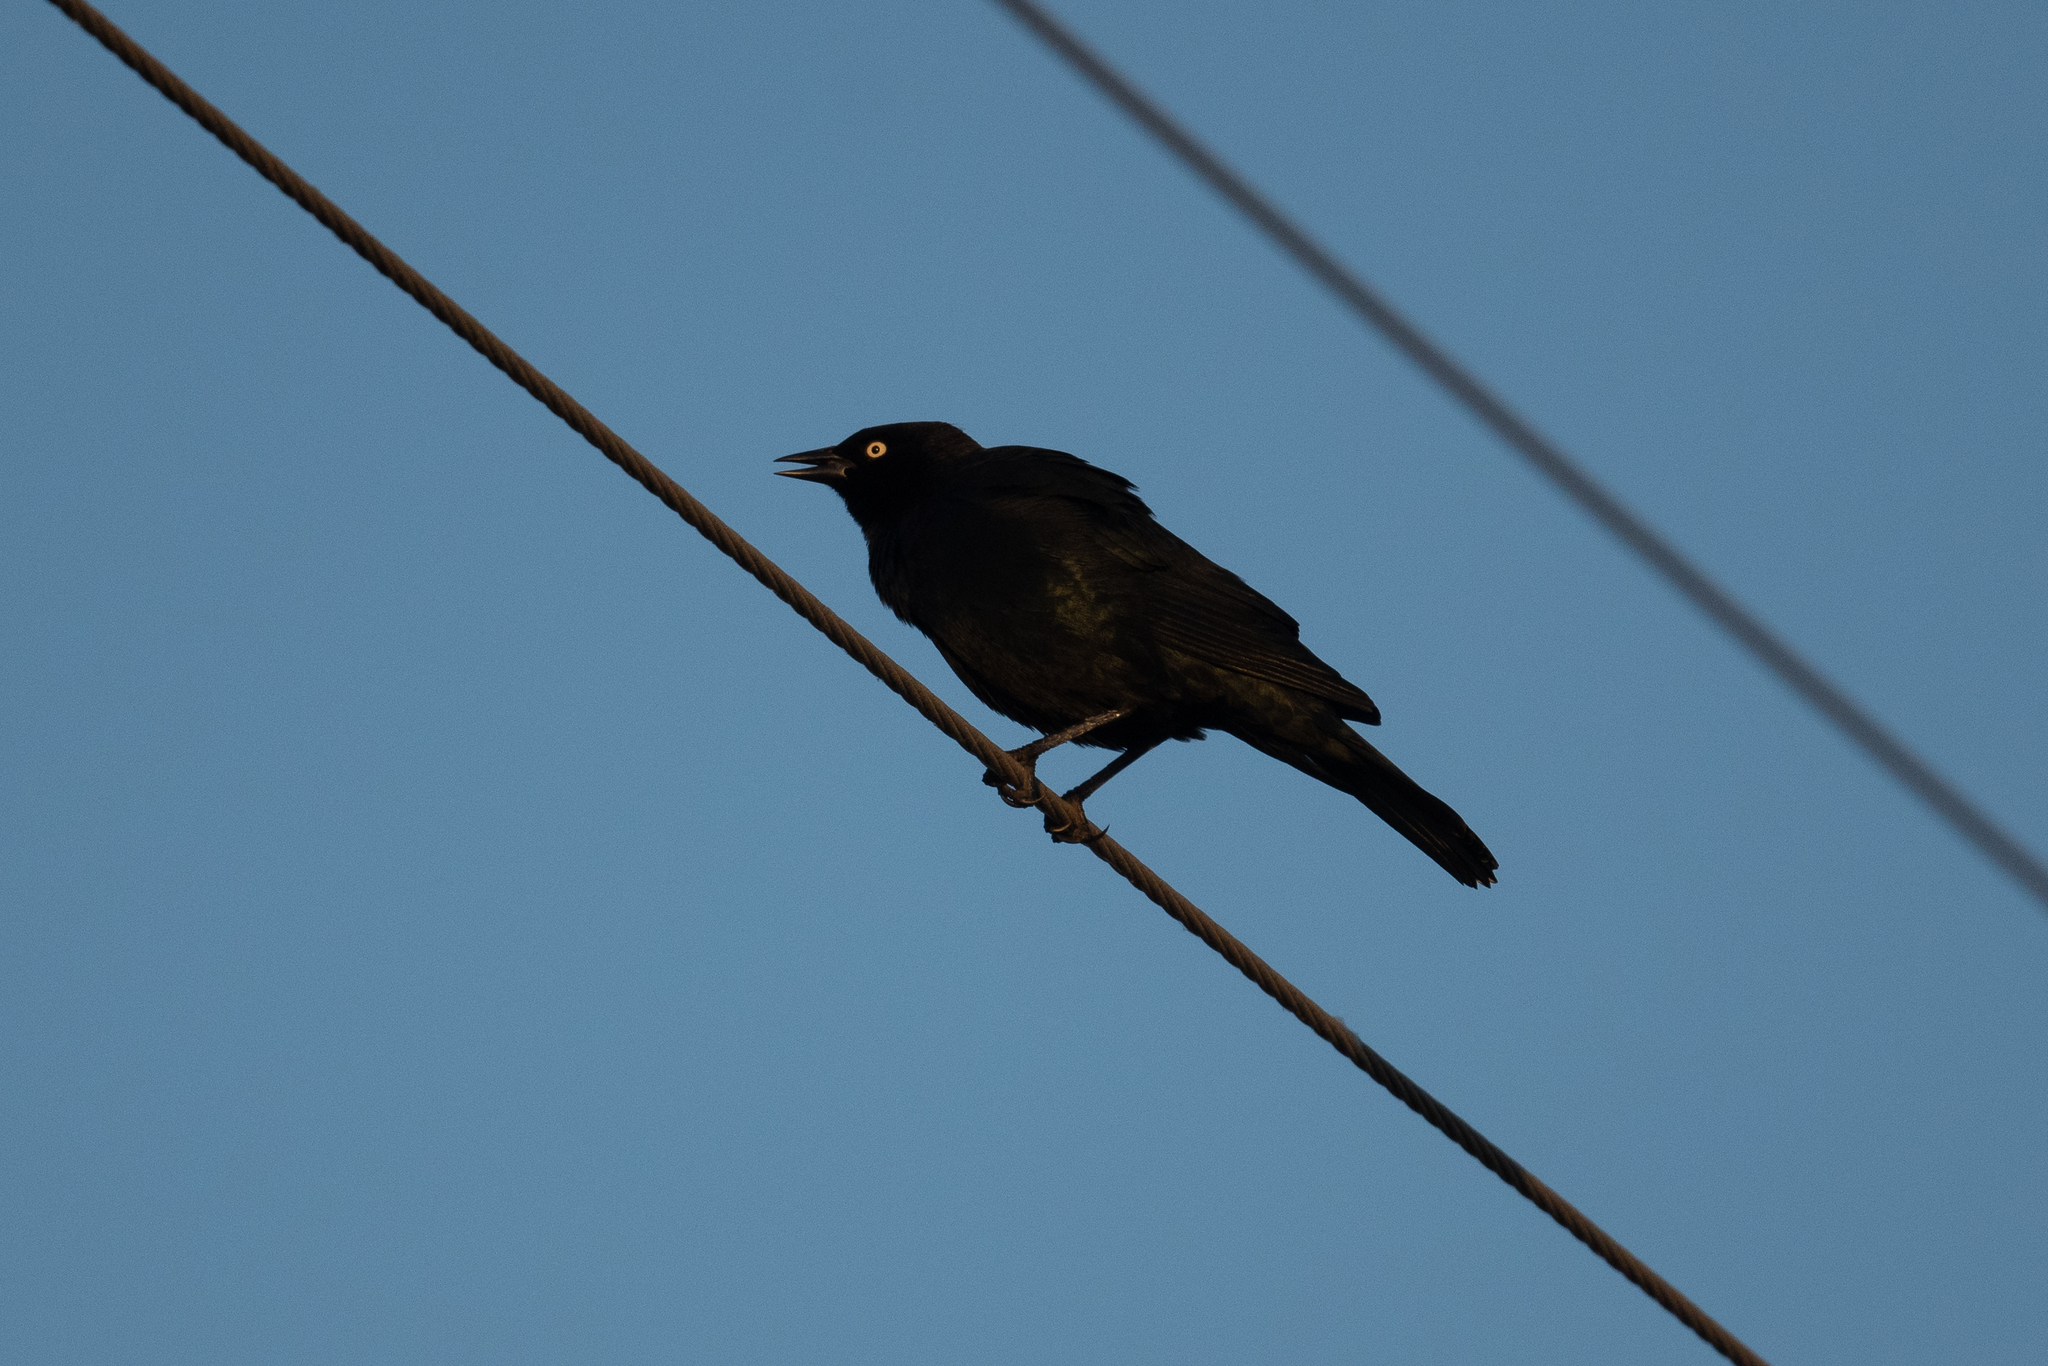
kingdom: Animalia
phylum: Chordata
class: Aves
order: Passeriformes
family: Icteridae
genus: Euphagus
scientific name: Euphagus cyanocephalus
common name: Brewer's blackbird
